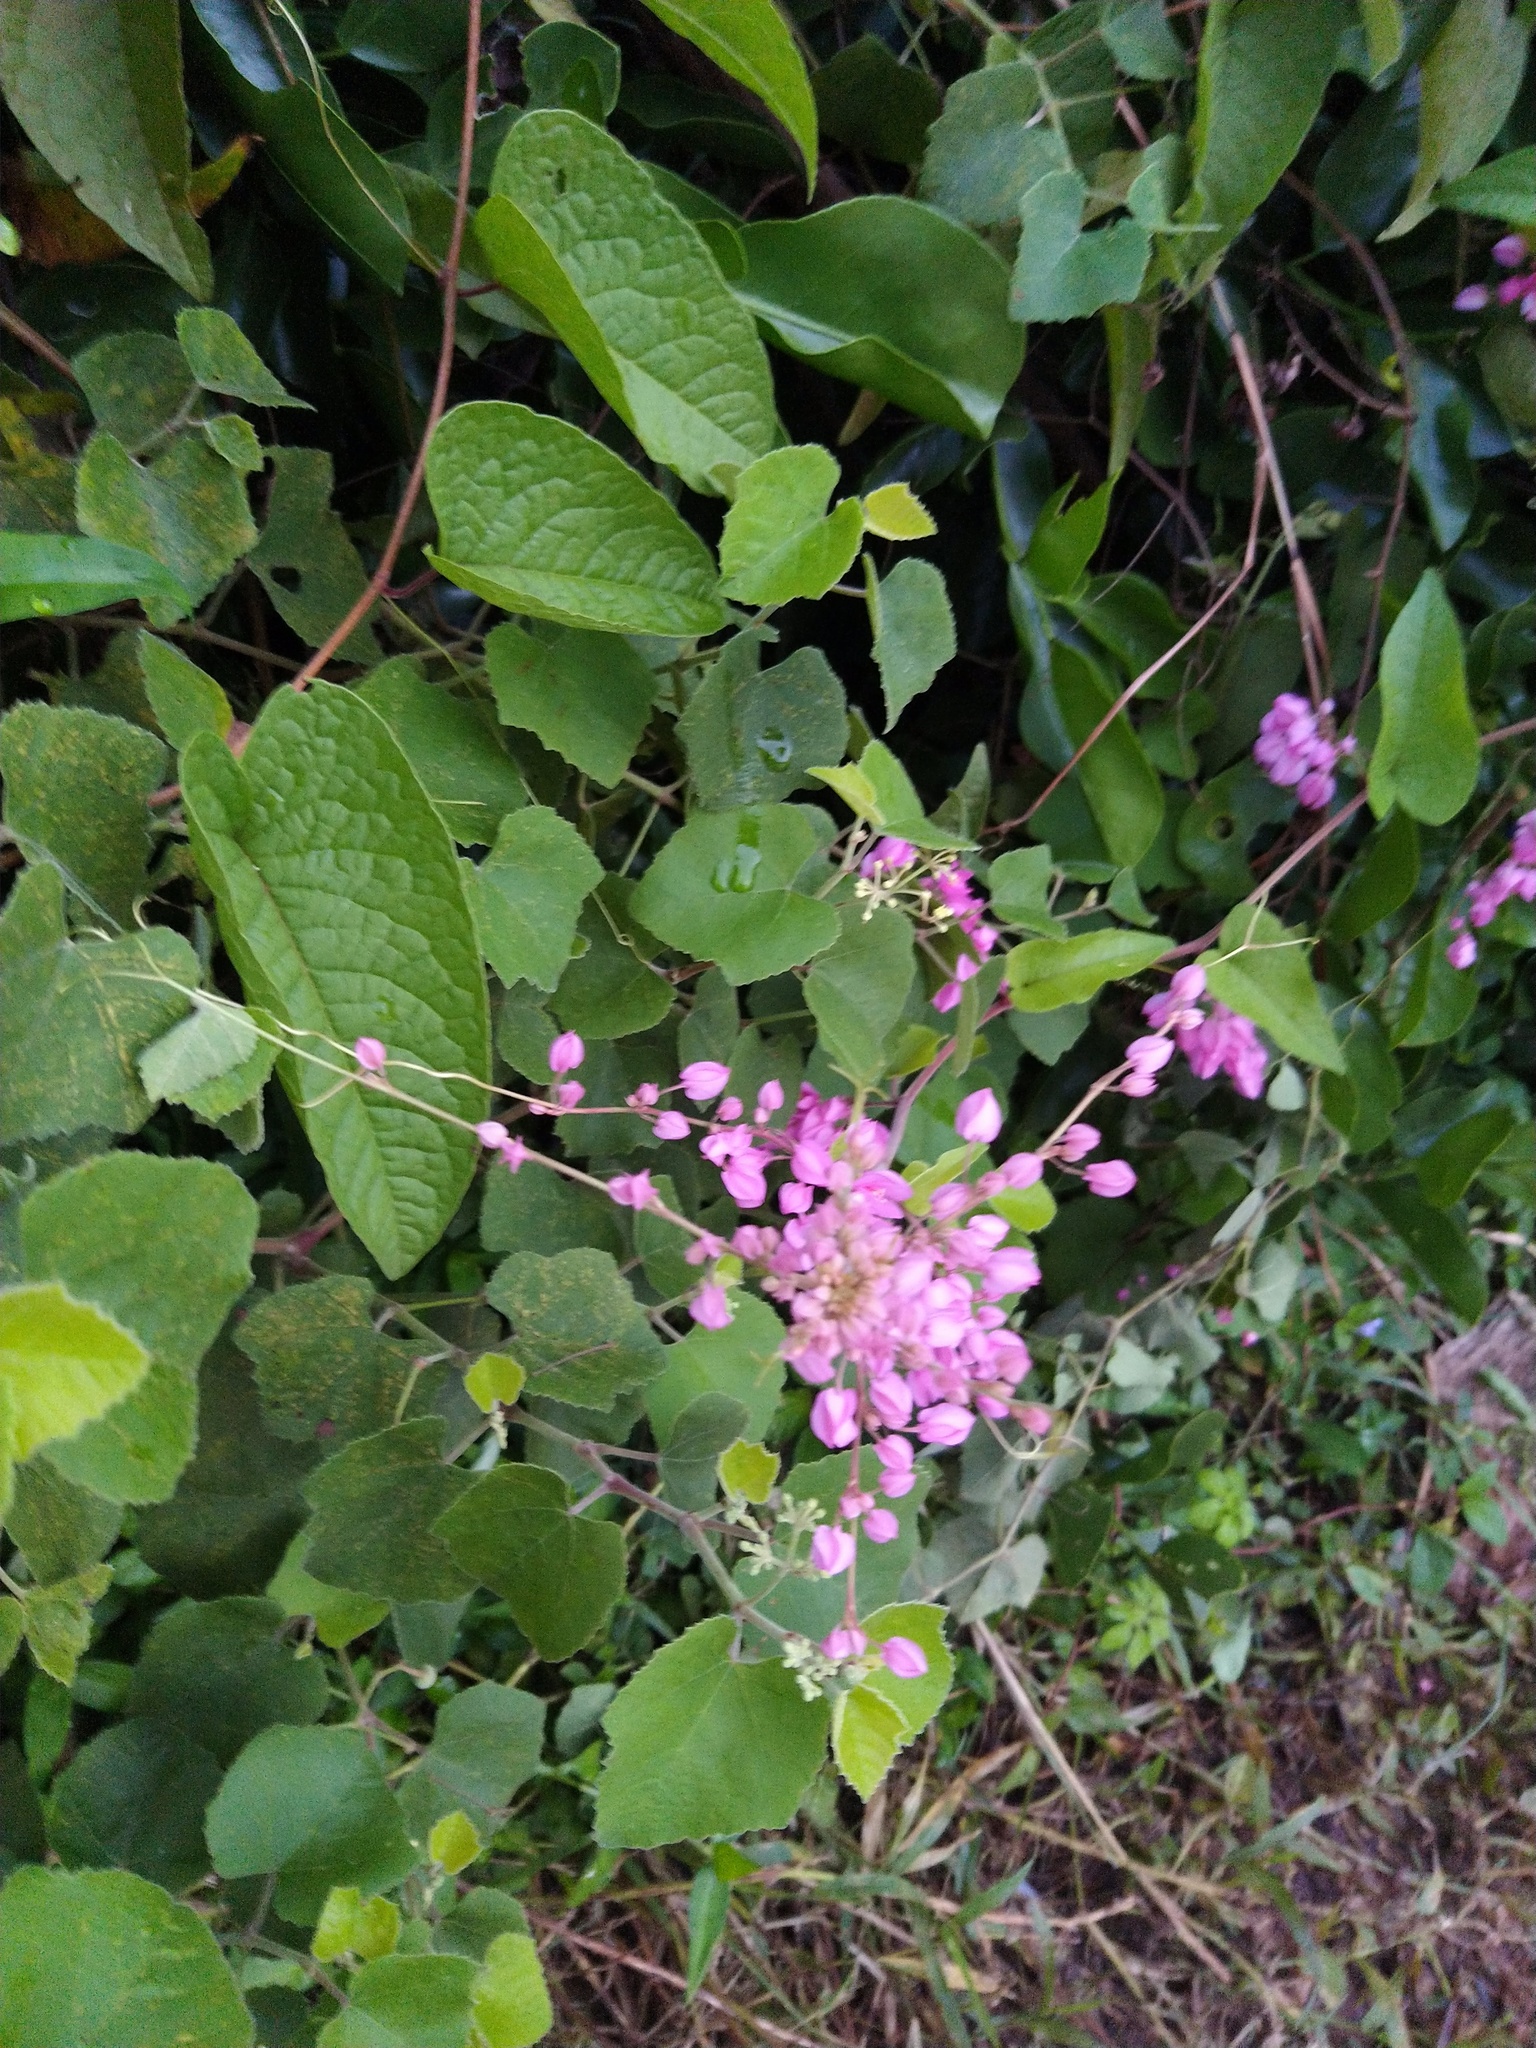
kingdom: Plantae
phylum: Tracheophyta
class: Magnoliopsida
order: Caryophyllales
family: Polygonaceae
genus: Antigonon
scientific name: Antigonon leptopus
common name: Coral vine
